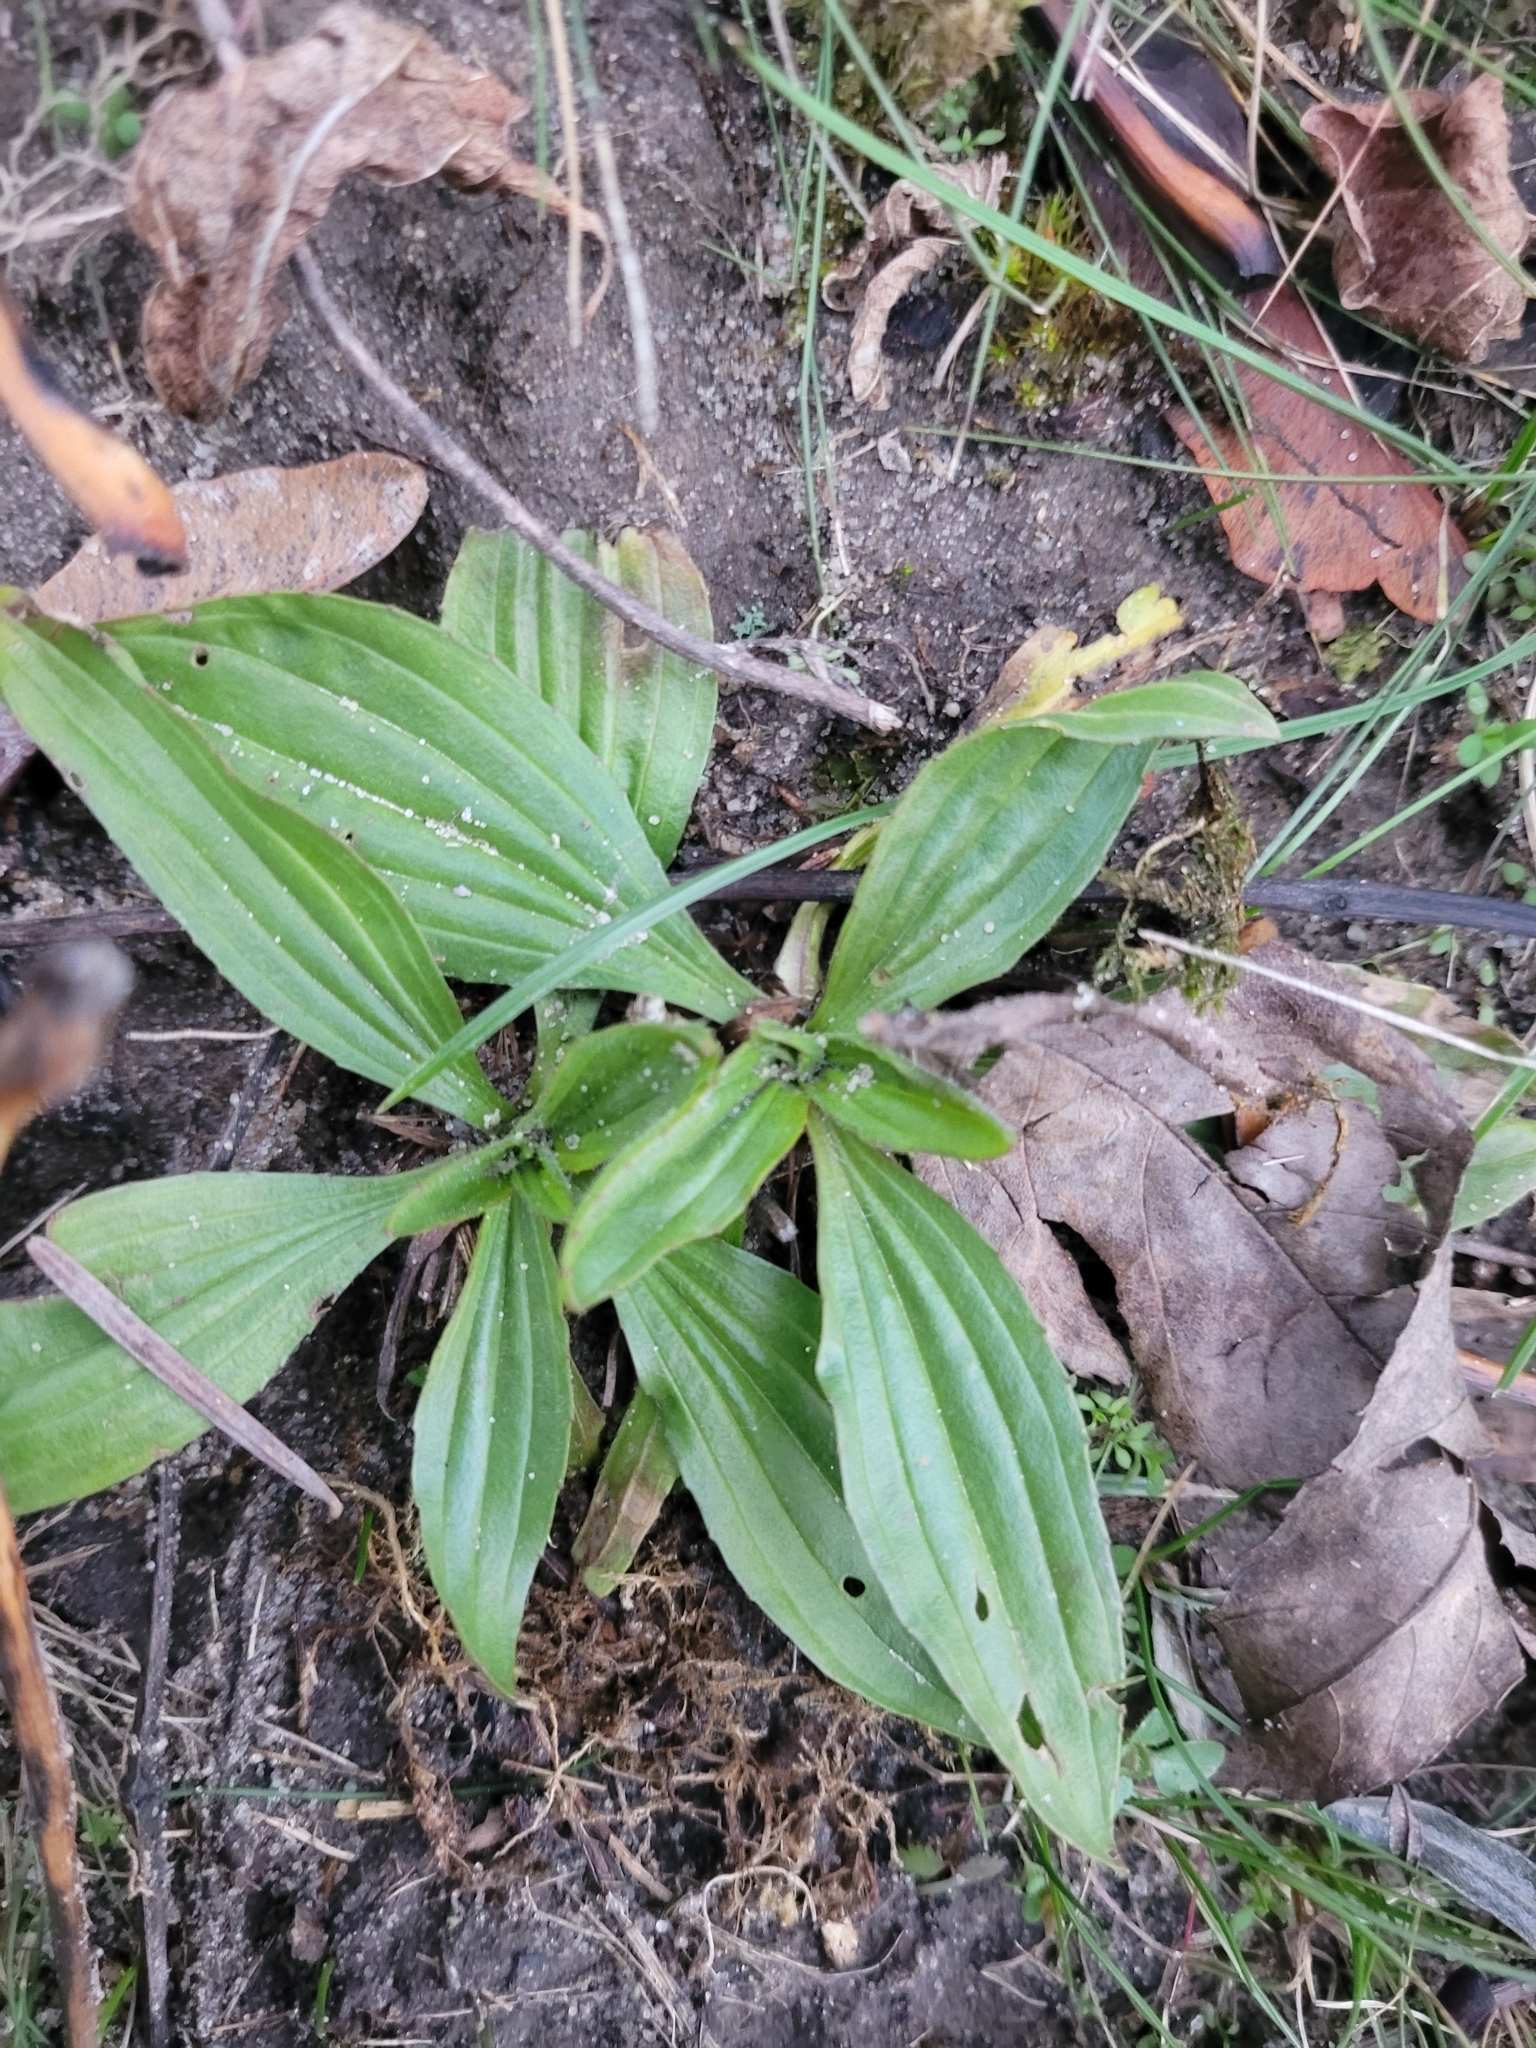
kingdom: Plantae
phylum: Tracheophyta
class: Magnoliopsida
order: Lamiales
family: Plantaginaceae
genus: Plantago
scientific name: Plantago lanceolata
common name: Ribwort plantain
